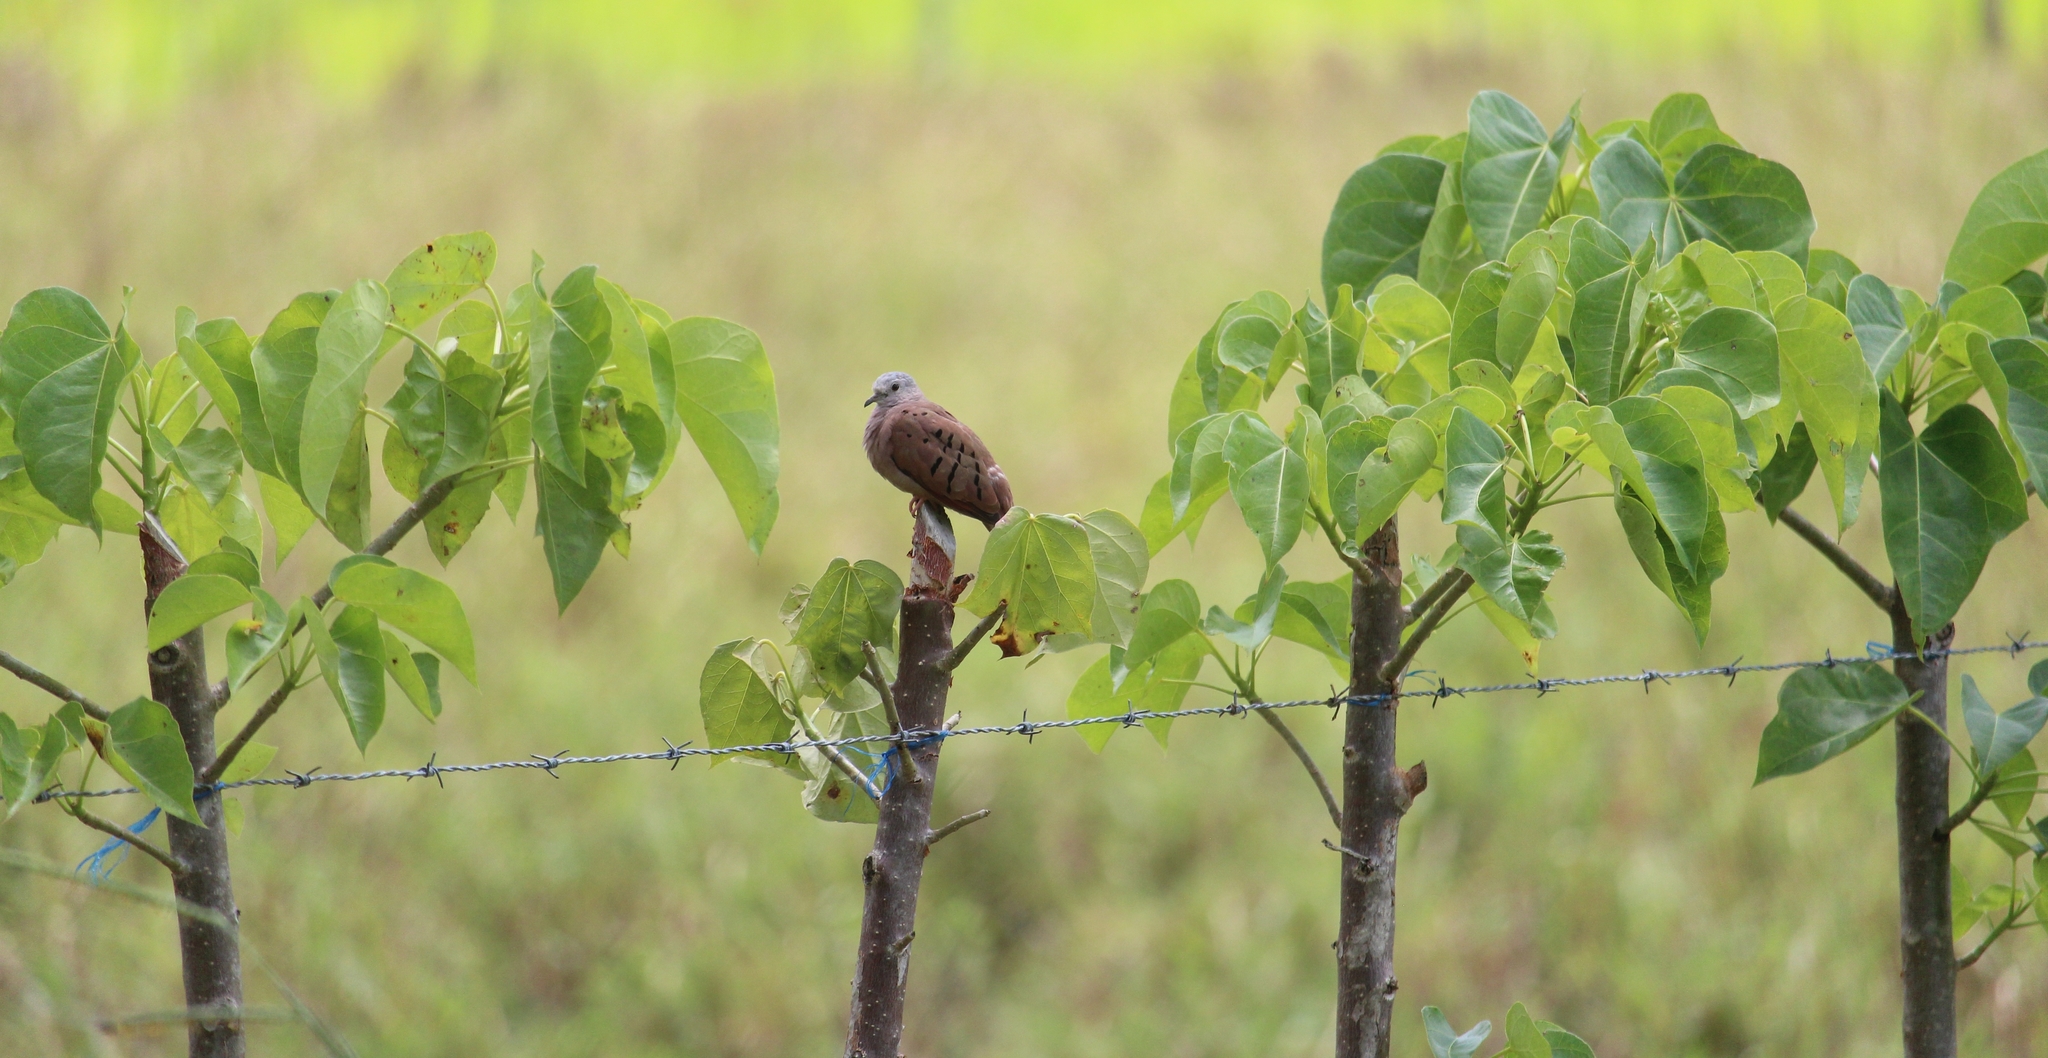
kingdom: Animalia
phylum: Chordata
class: Aves
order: Columbiformes
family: Columbidae
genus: Columbina
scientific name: Columbina talpacoti
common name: Ruddy ground dove
